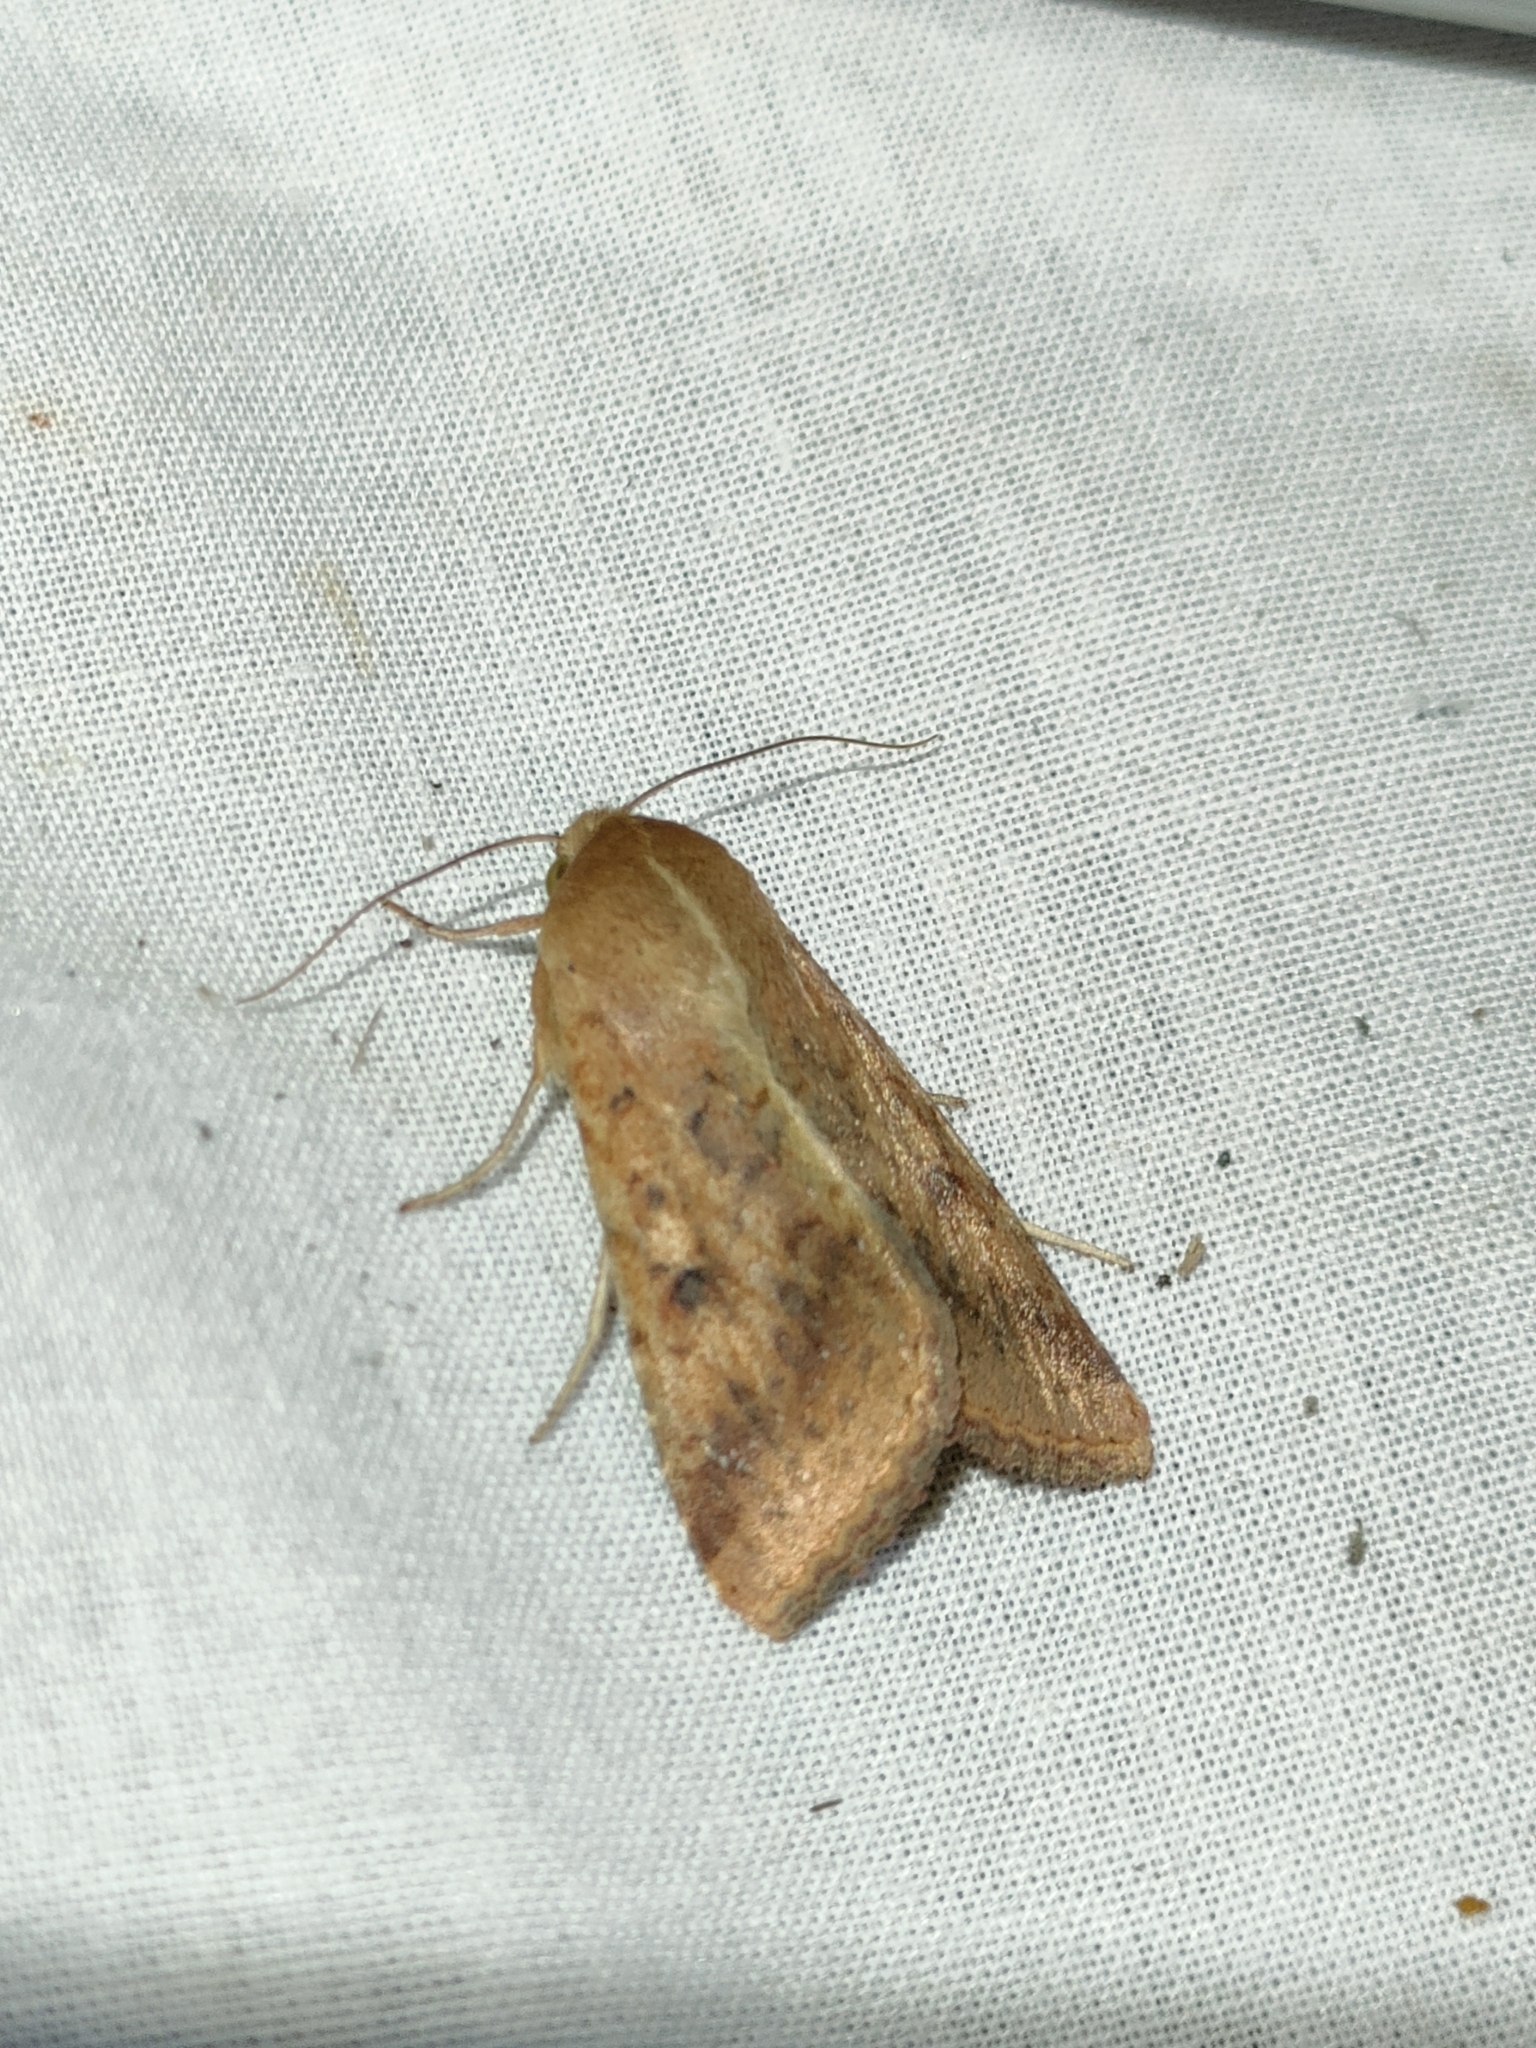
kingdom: Animalia
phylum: Arthropoda
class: Insecta
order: Lepidoptera
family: Noctuidae
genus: Helicoverpa
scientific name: Helicoverpa armigera
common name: Cotton bollworm
